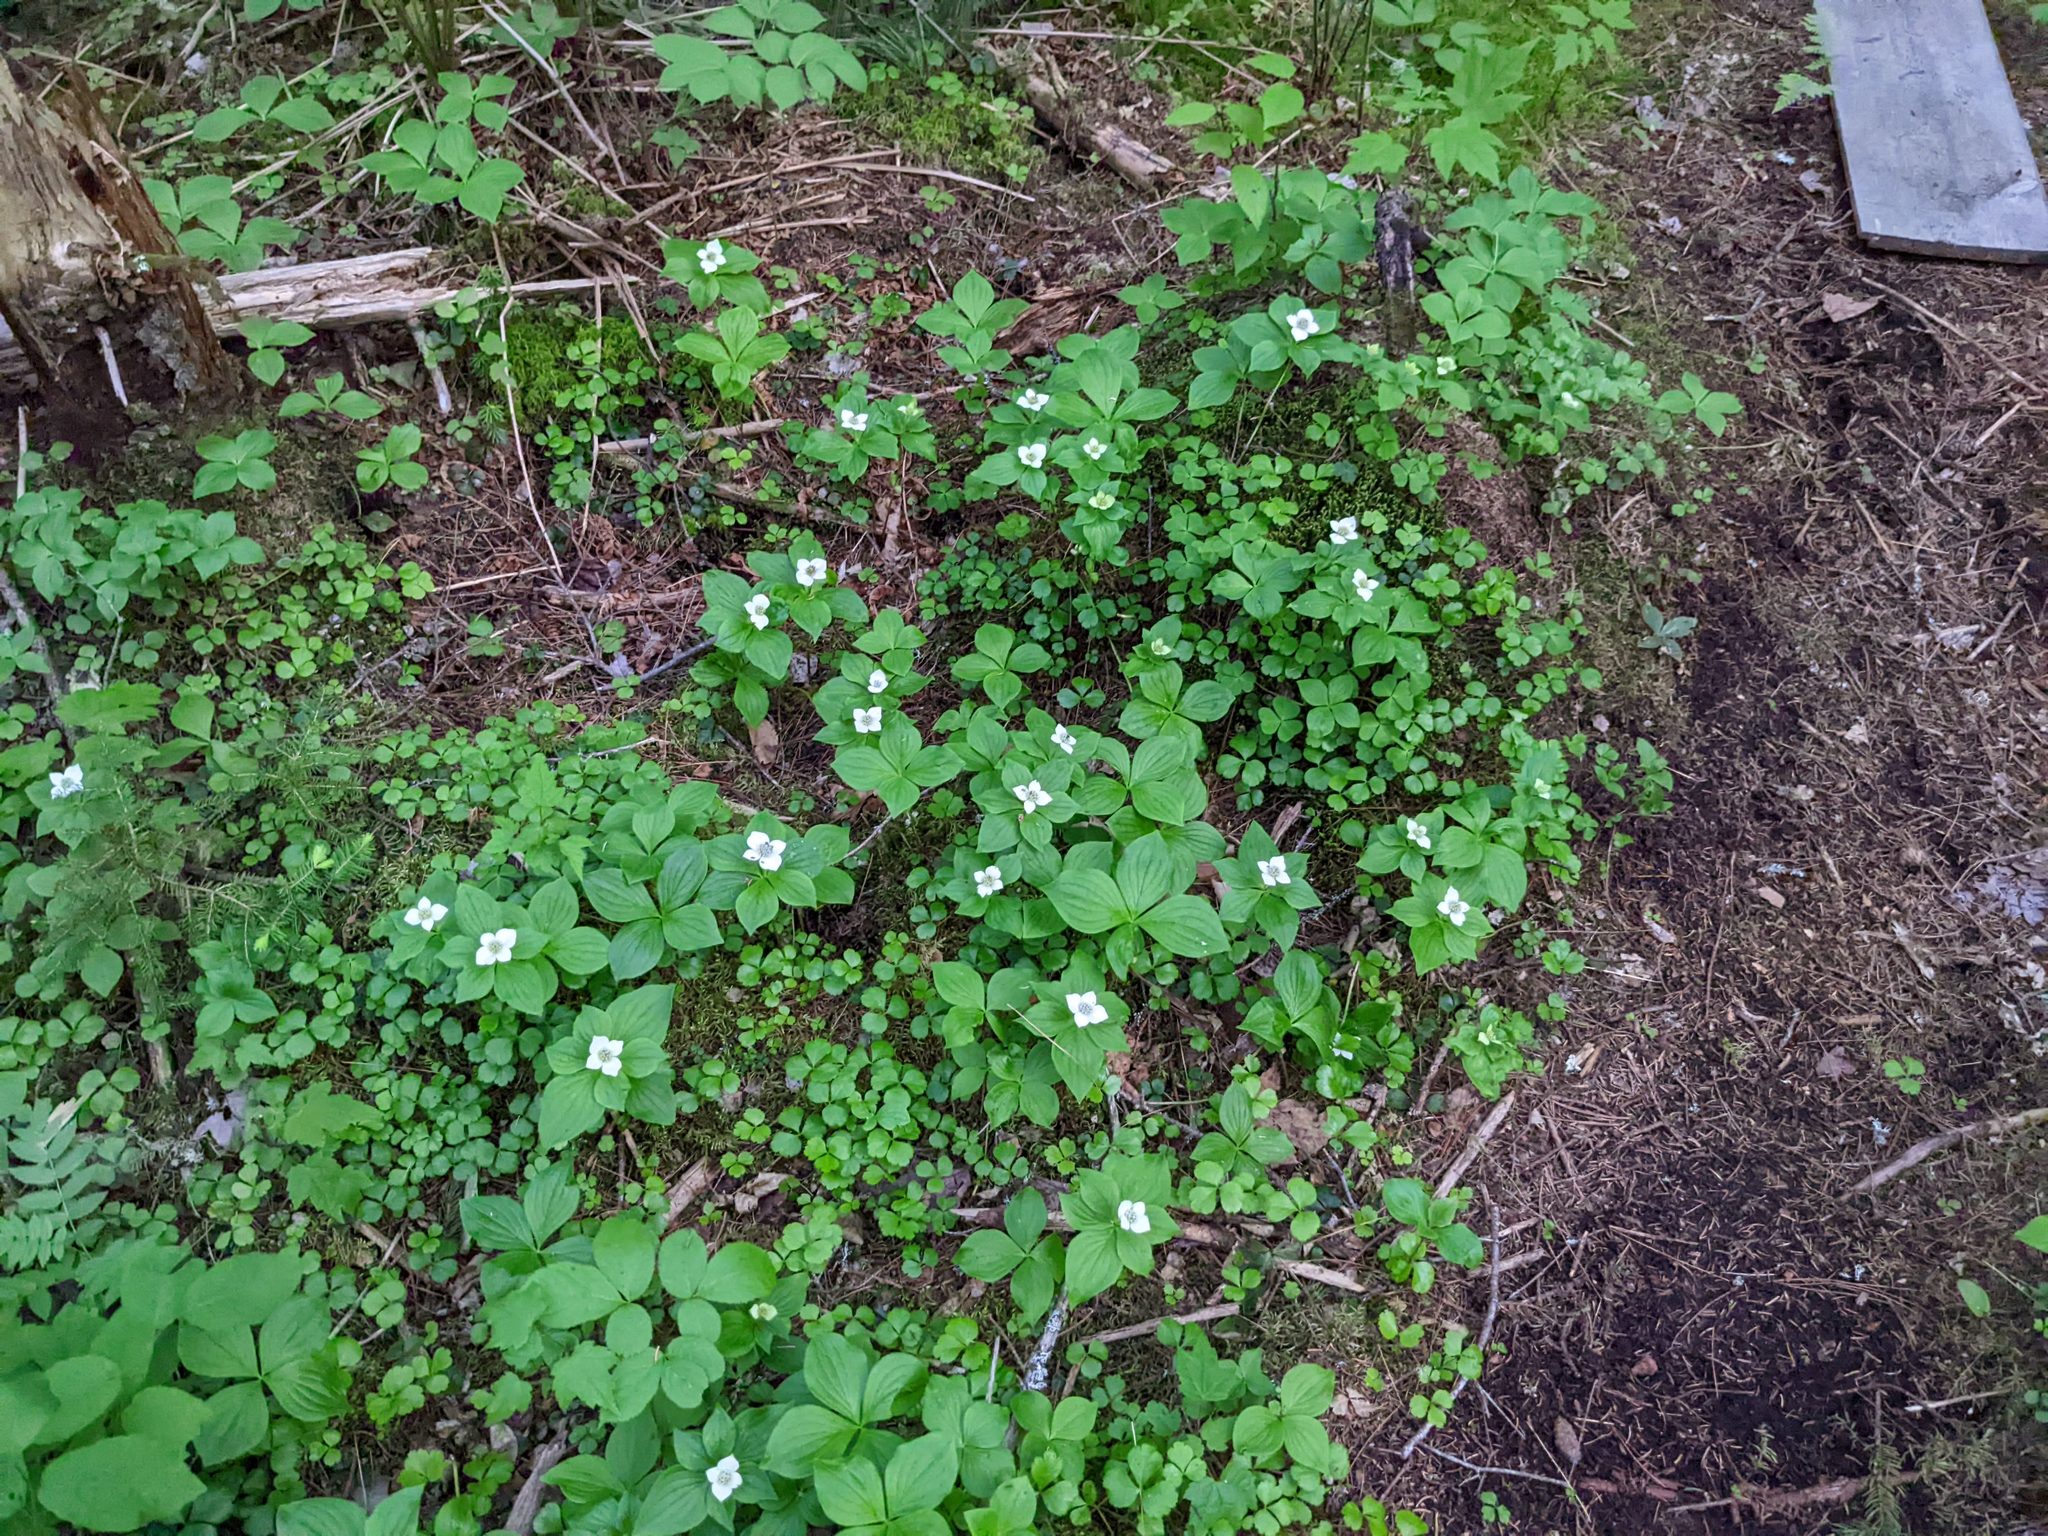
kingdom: Plantae
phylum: Tracheophyta
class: Magnoliopsida
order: Cornales
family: Cornaceae
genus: Cornus
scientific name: Cornus canadensis
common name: Creeping dogwood
